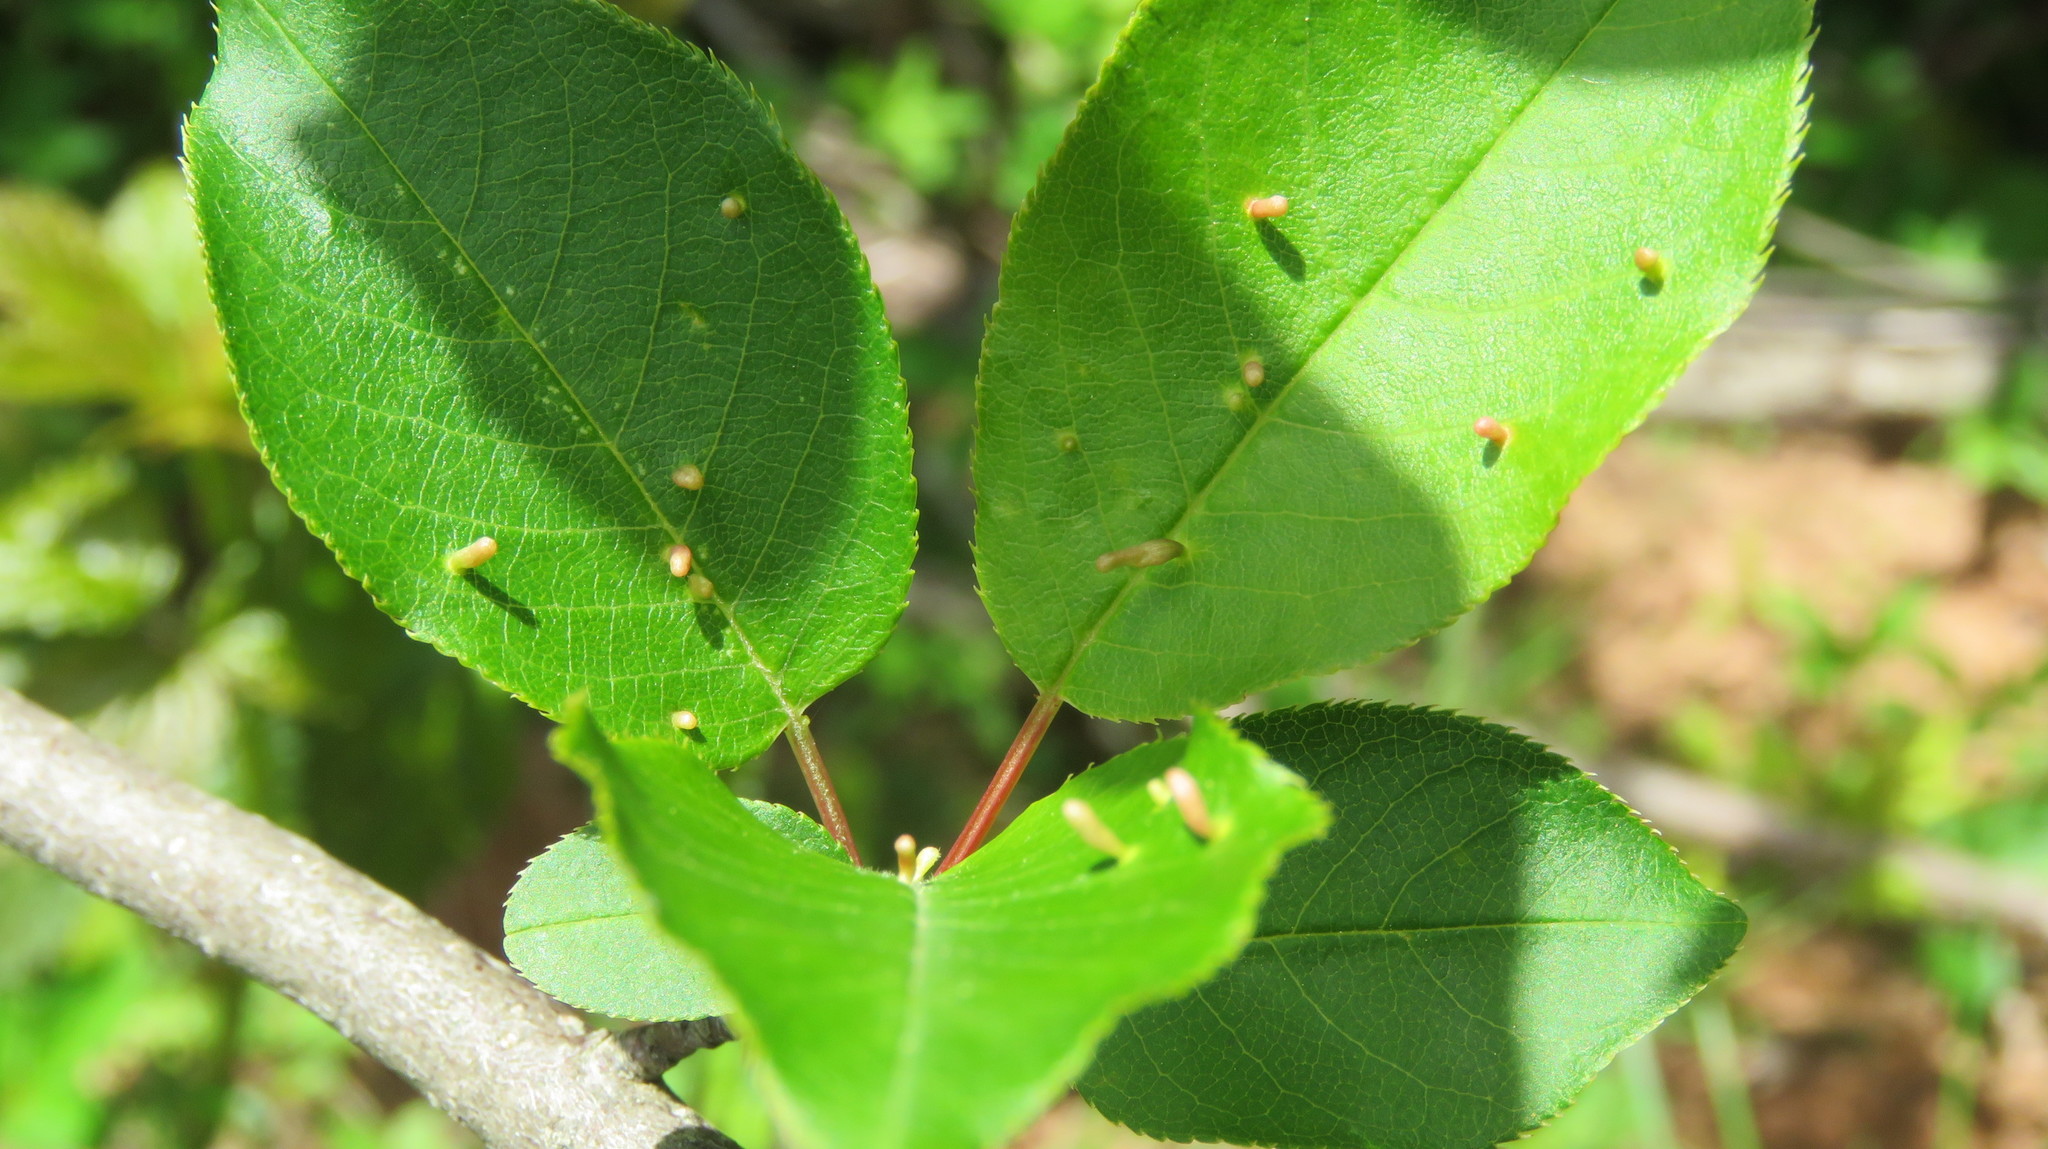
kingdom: Animalia
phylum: Arthropoda
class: Arachnida
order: Trombidiformes
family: Eriophyidae
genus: Eriophyes
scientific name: Eriophyes emarginatae
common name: Plum leaf gall mite
